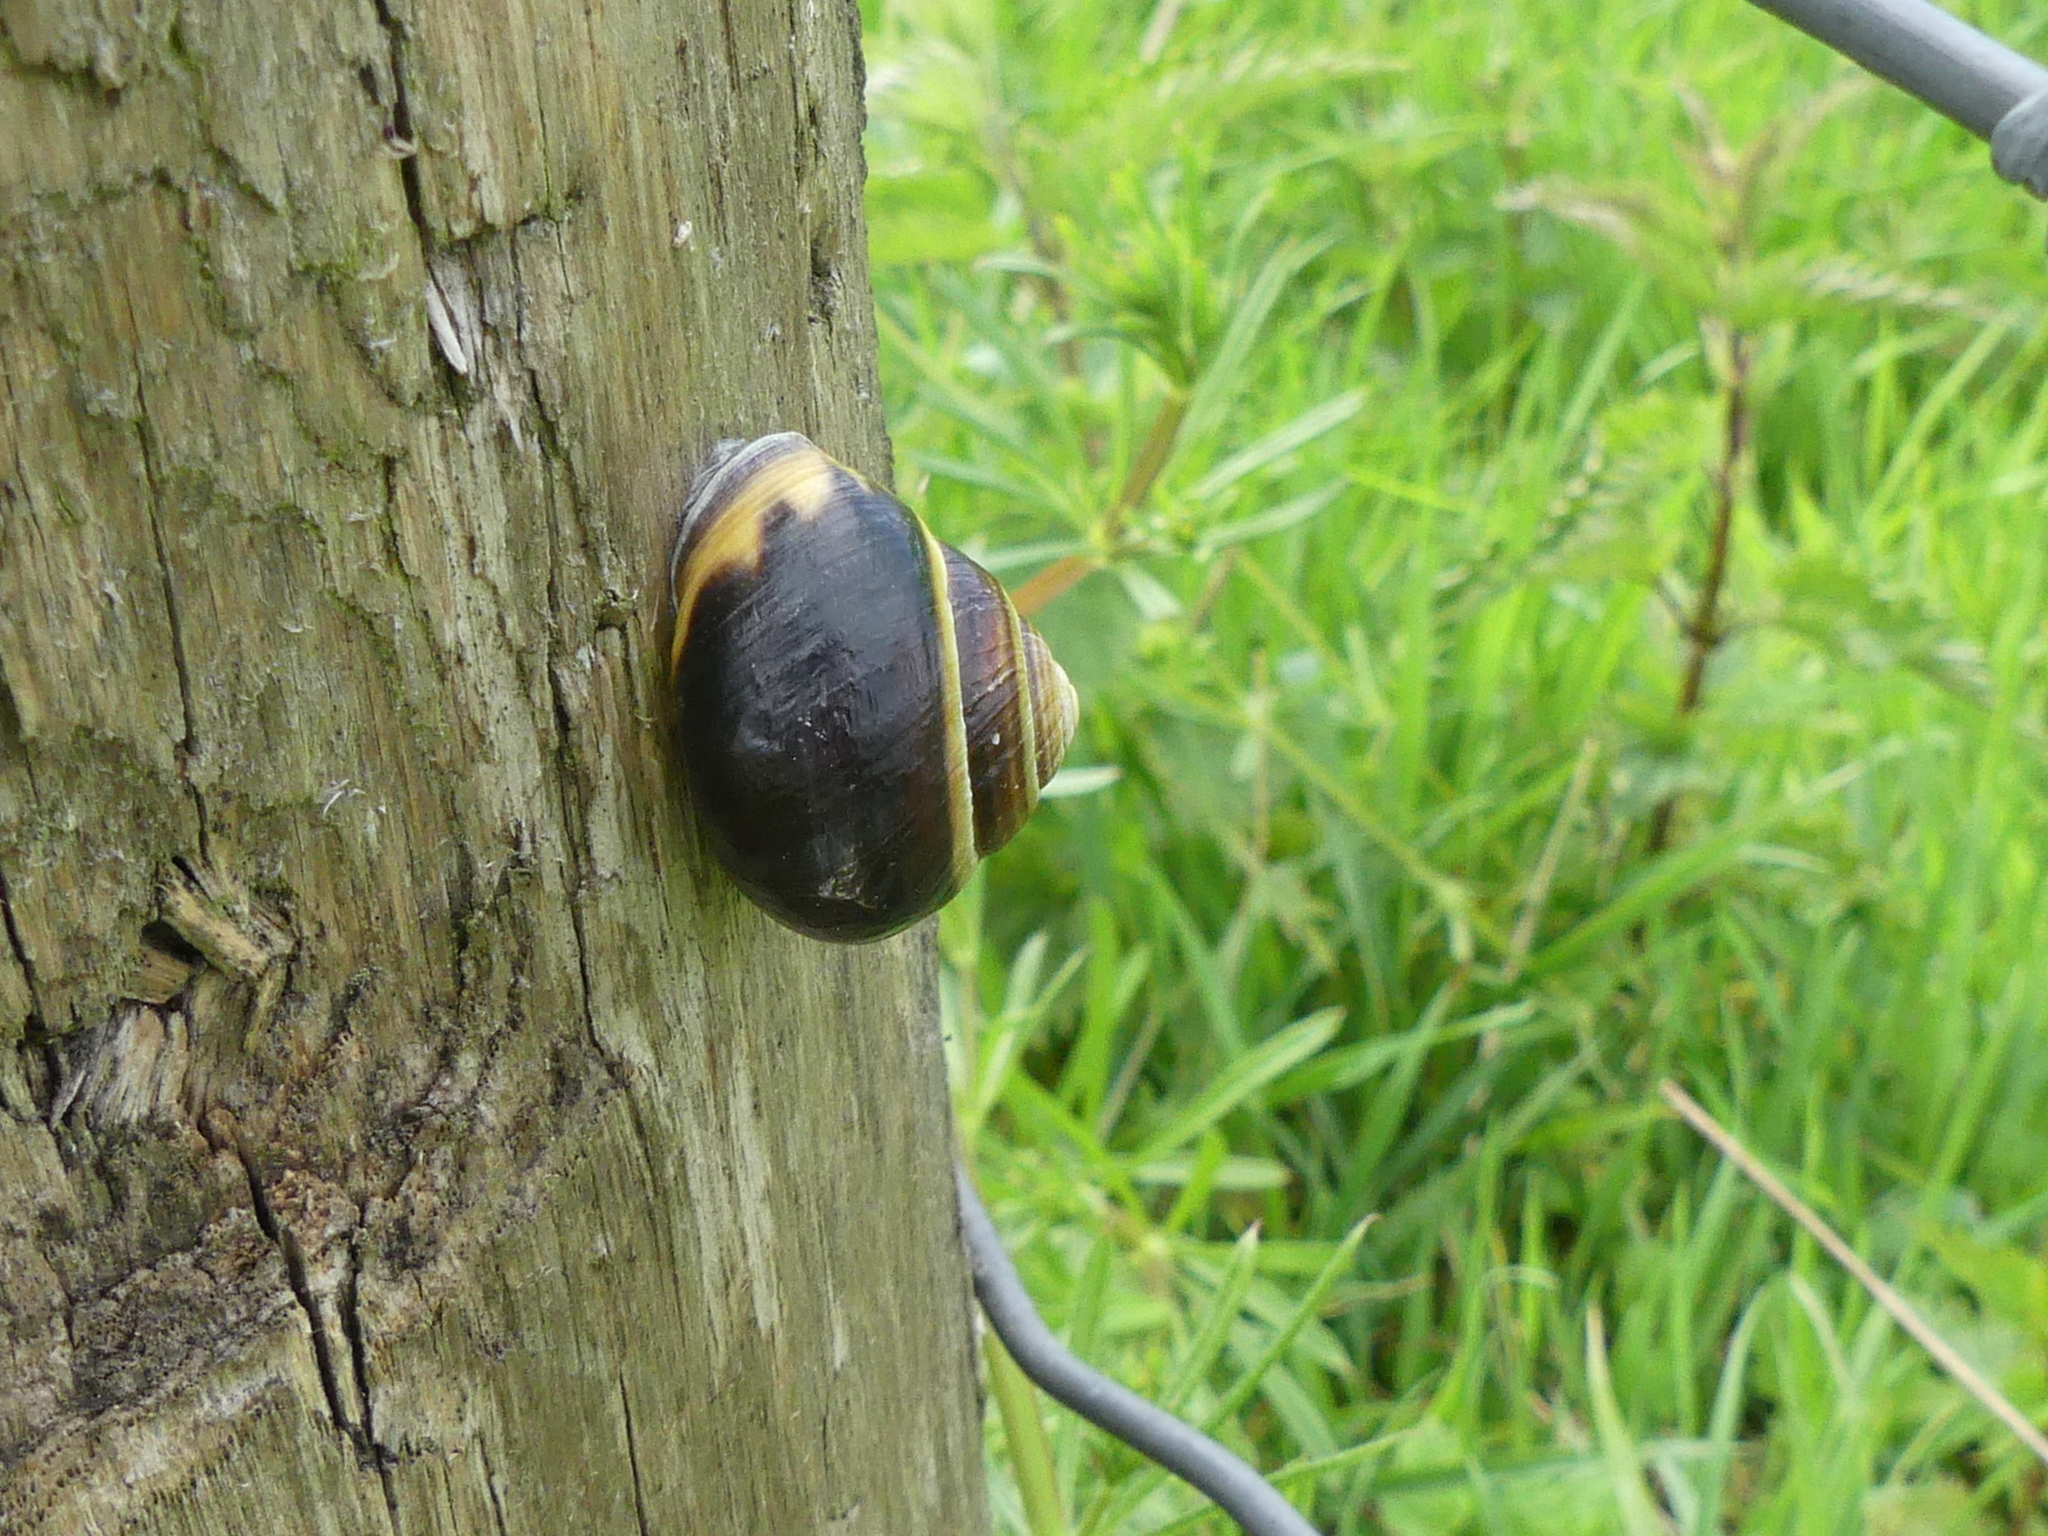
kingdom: Animalia
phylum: Mollusca
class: Gastropoda
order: Stylommatophora
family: Helicidae
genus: Cepaea
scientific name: Cepaea nemoralis
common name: Grovesnail
